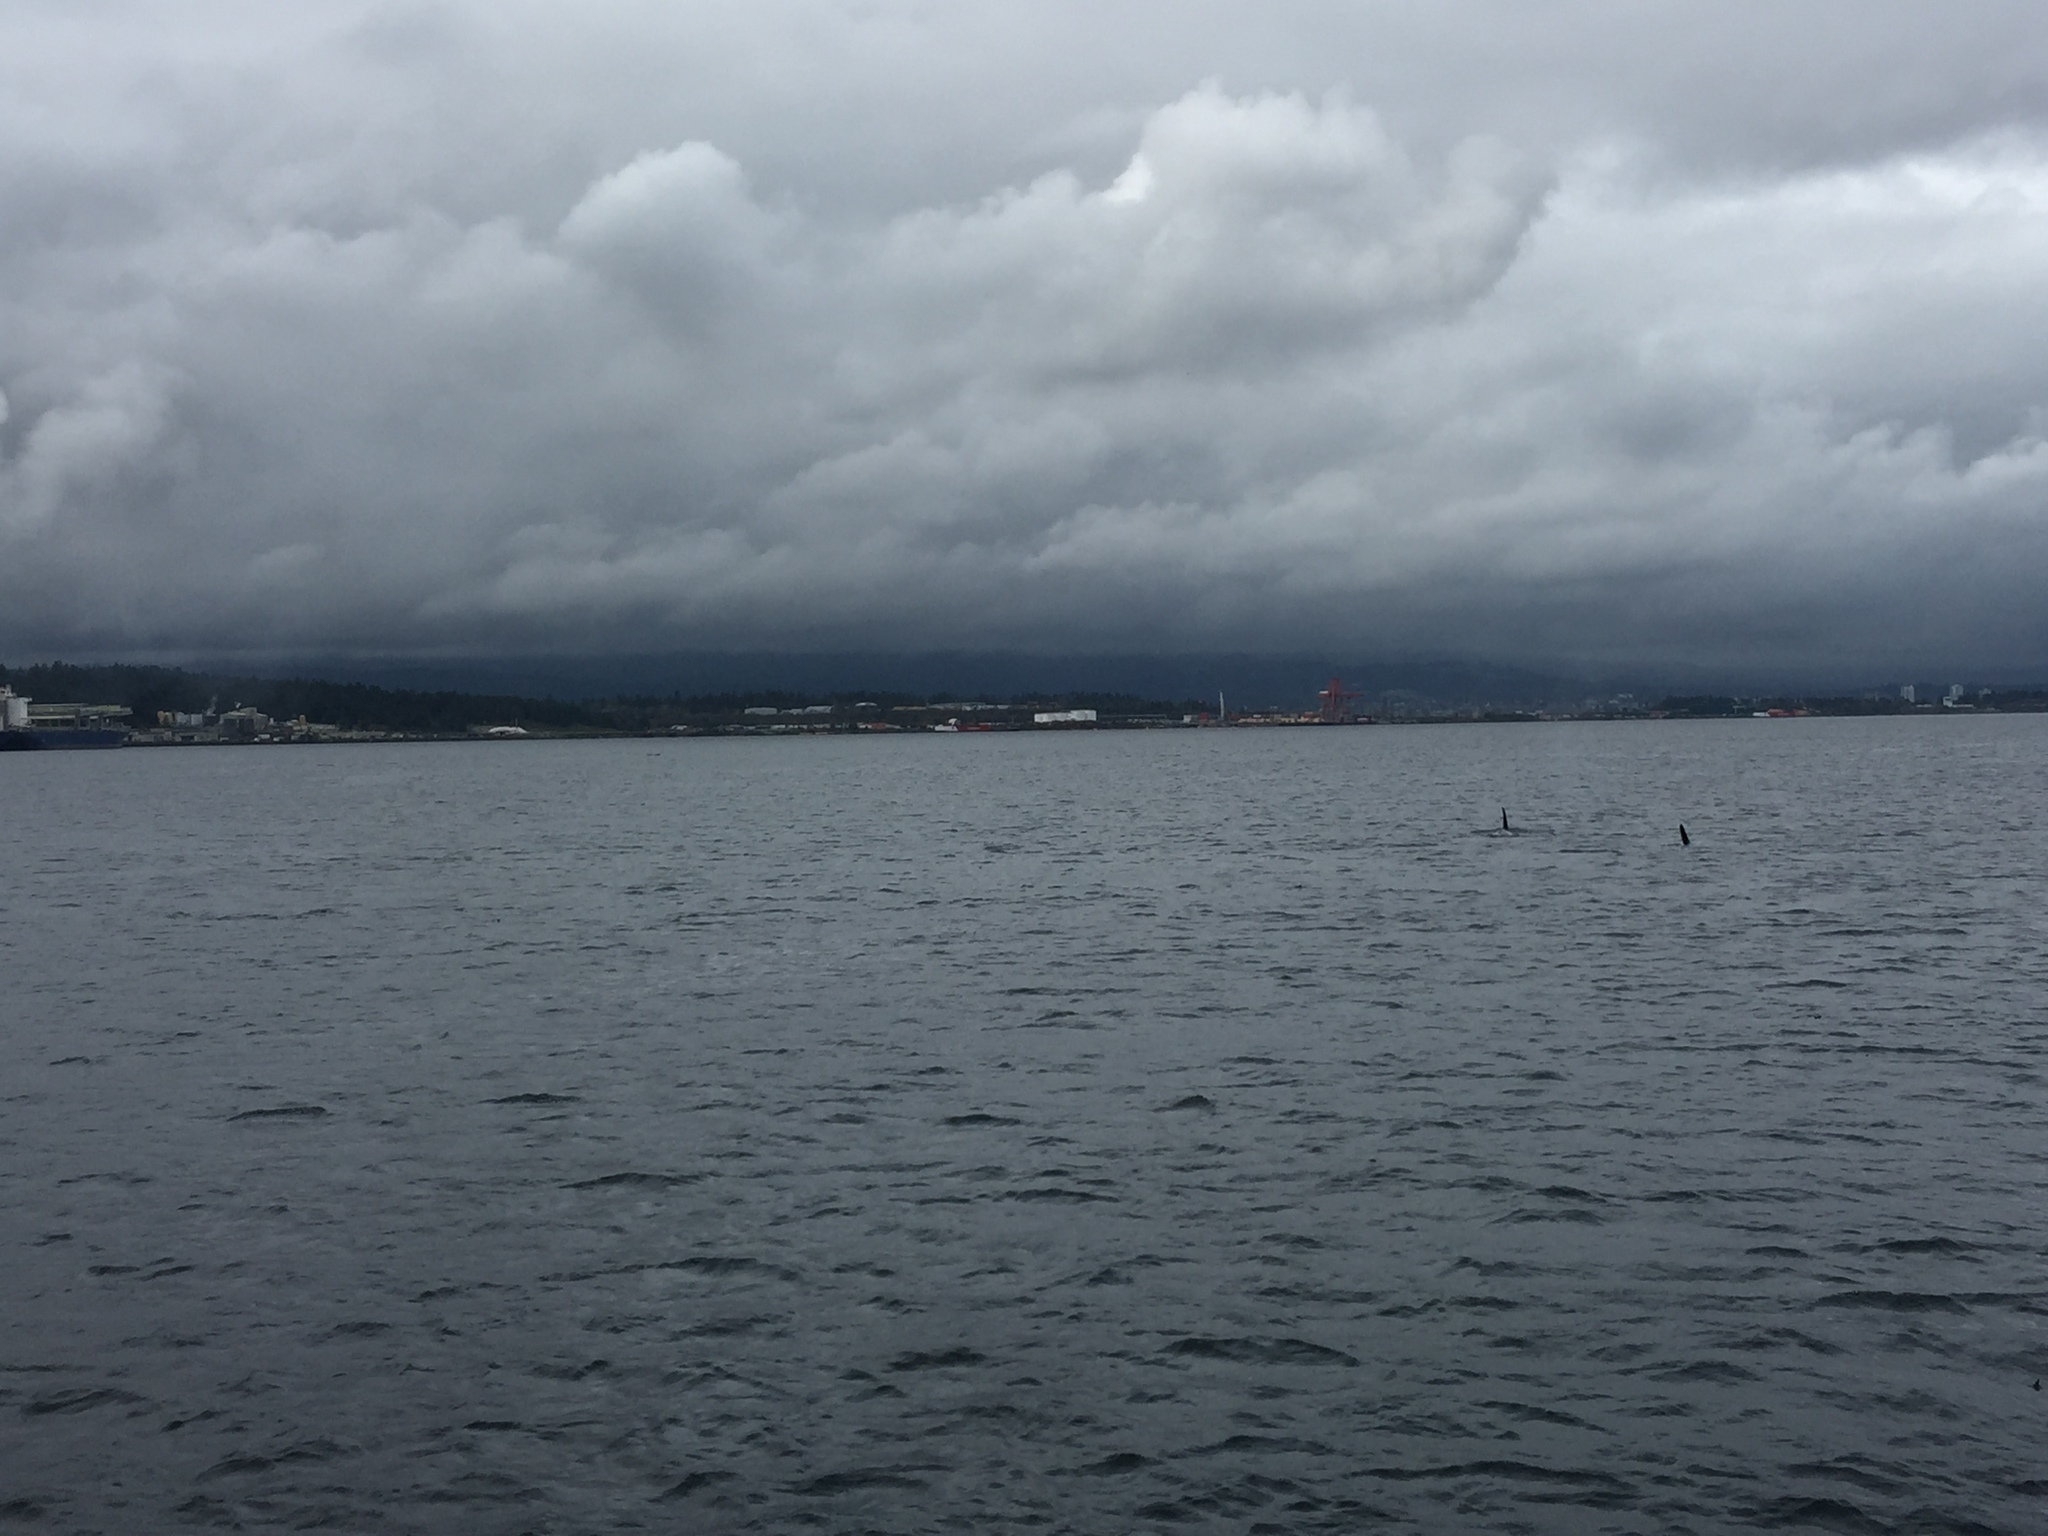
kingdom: Animalia
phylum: Chordata
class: Mammalia
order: Cetacea
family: Delphinidae
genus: Orcinus
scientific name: Orcinus orca
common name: Killer whale
